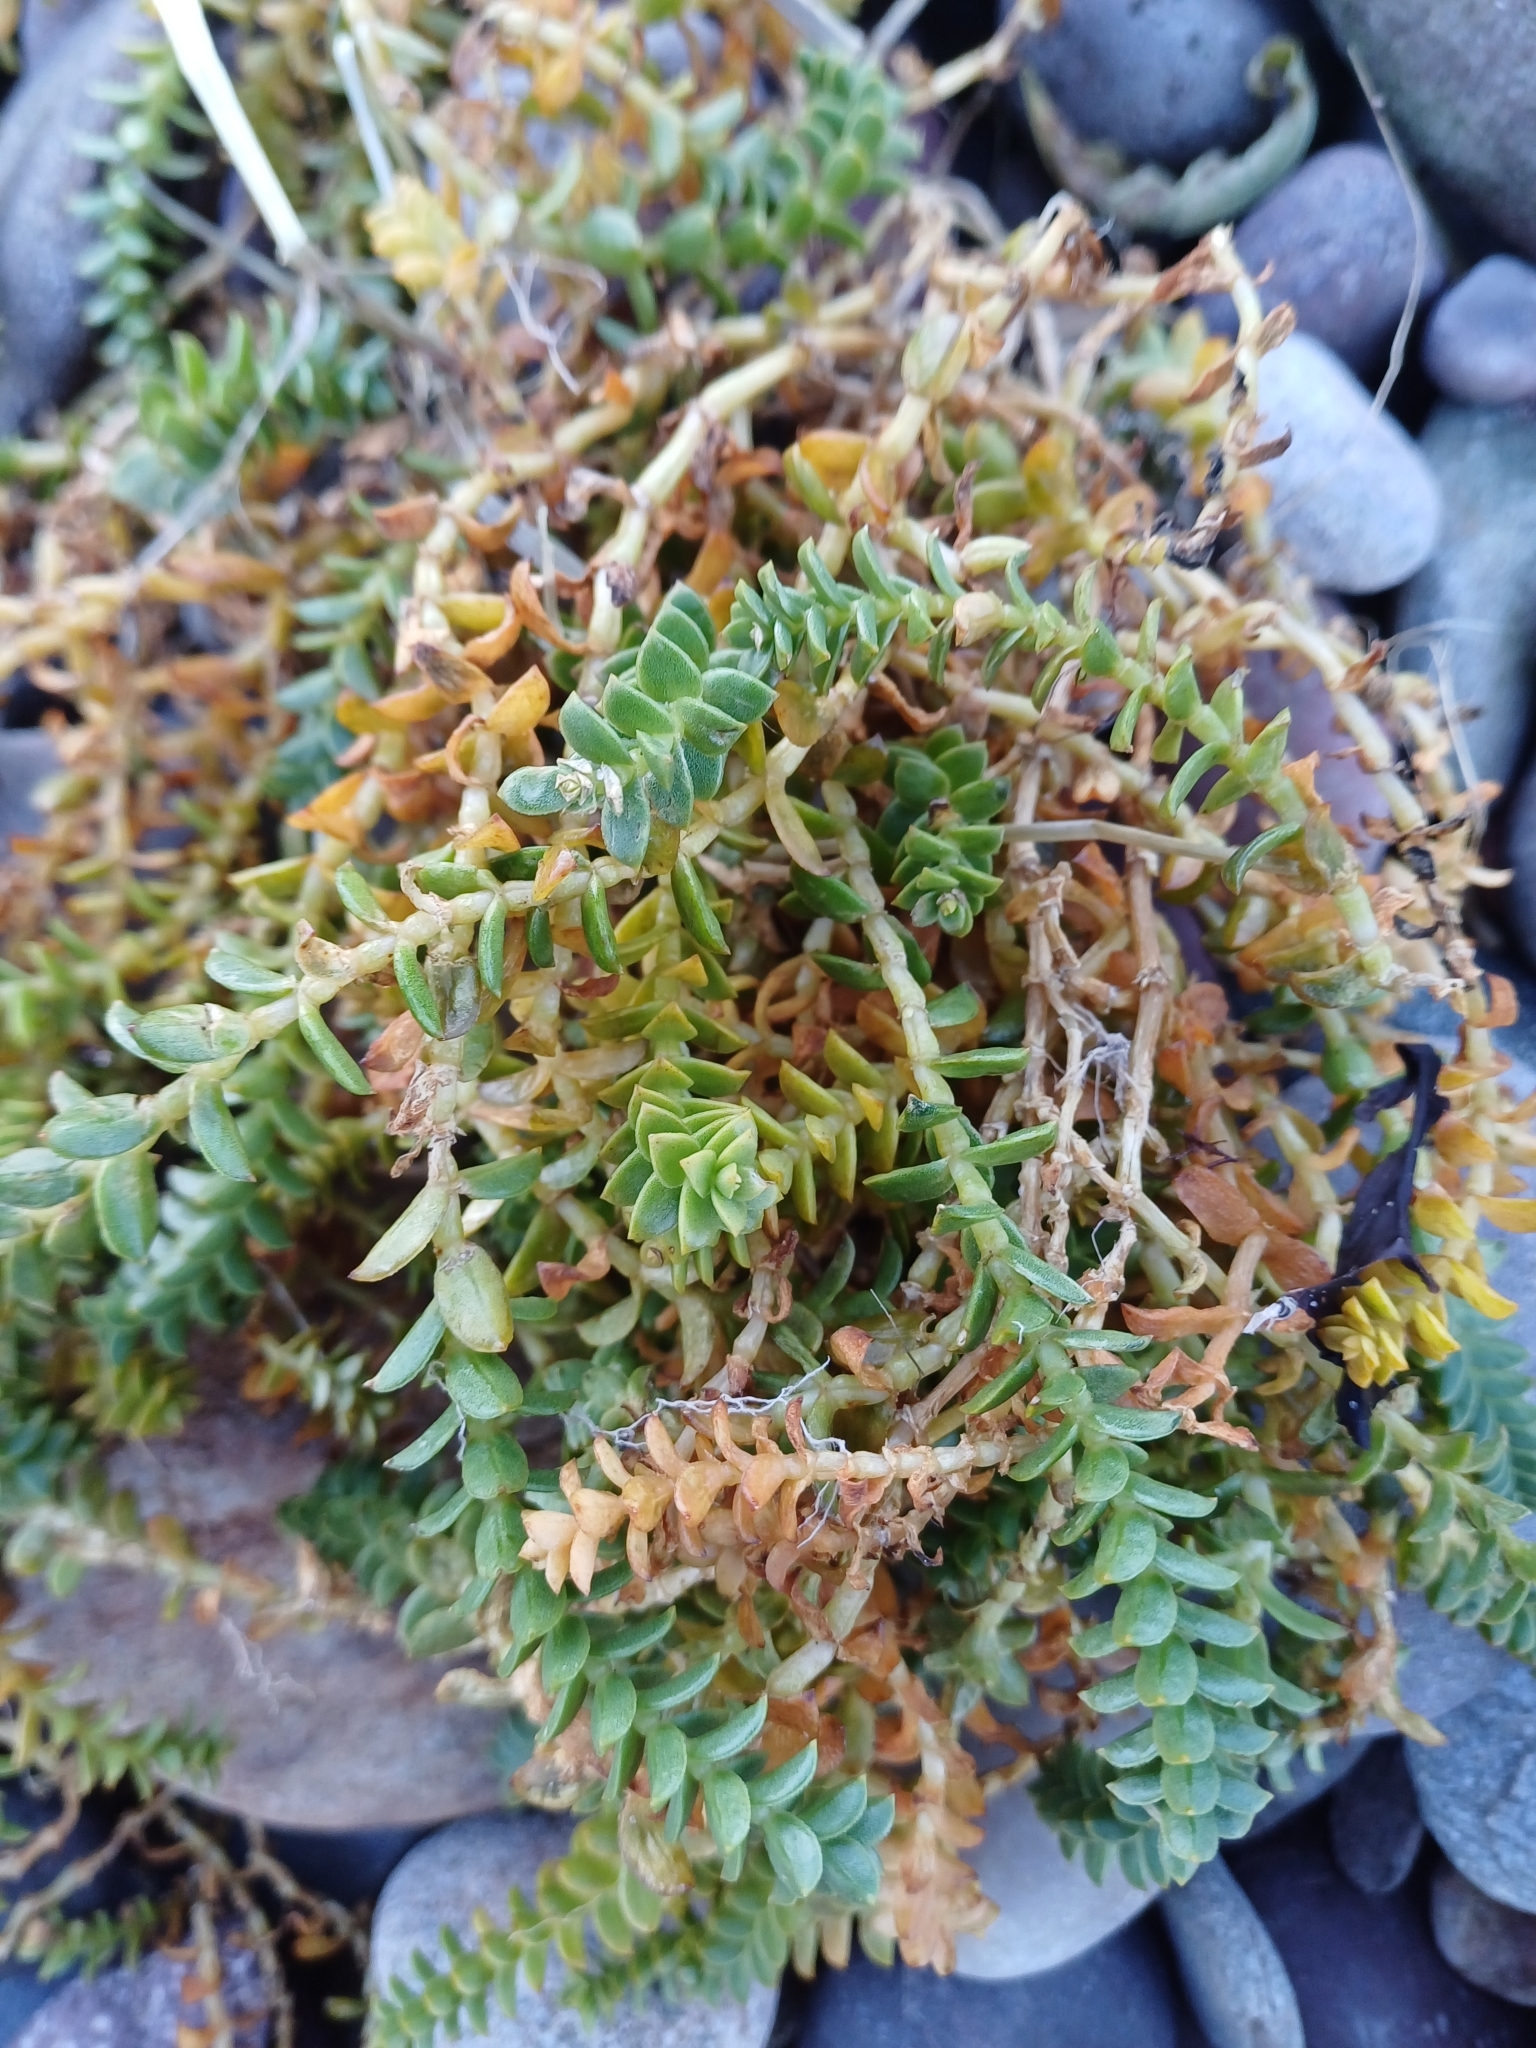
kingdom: Plantae
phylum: Tracheophyta
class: Magnoliopsida
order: Caryophyllales
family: Caryophyllaceae
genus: Honckenya
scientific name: Honckenya peploides
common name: Sea sandwort
